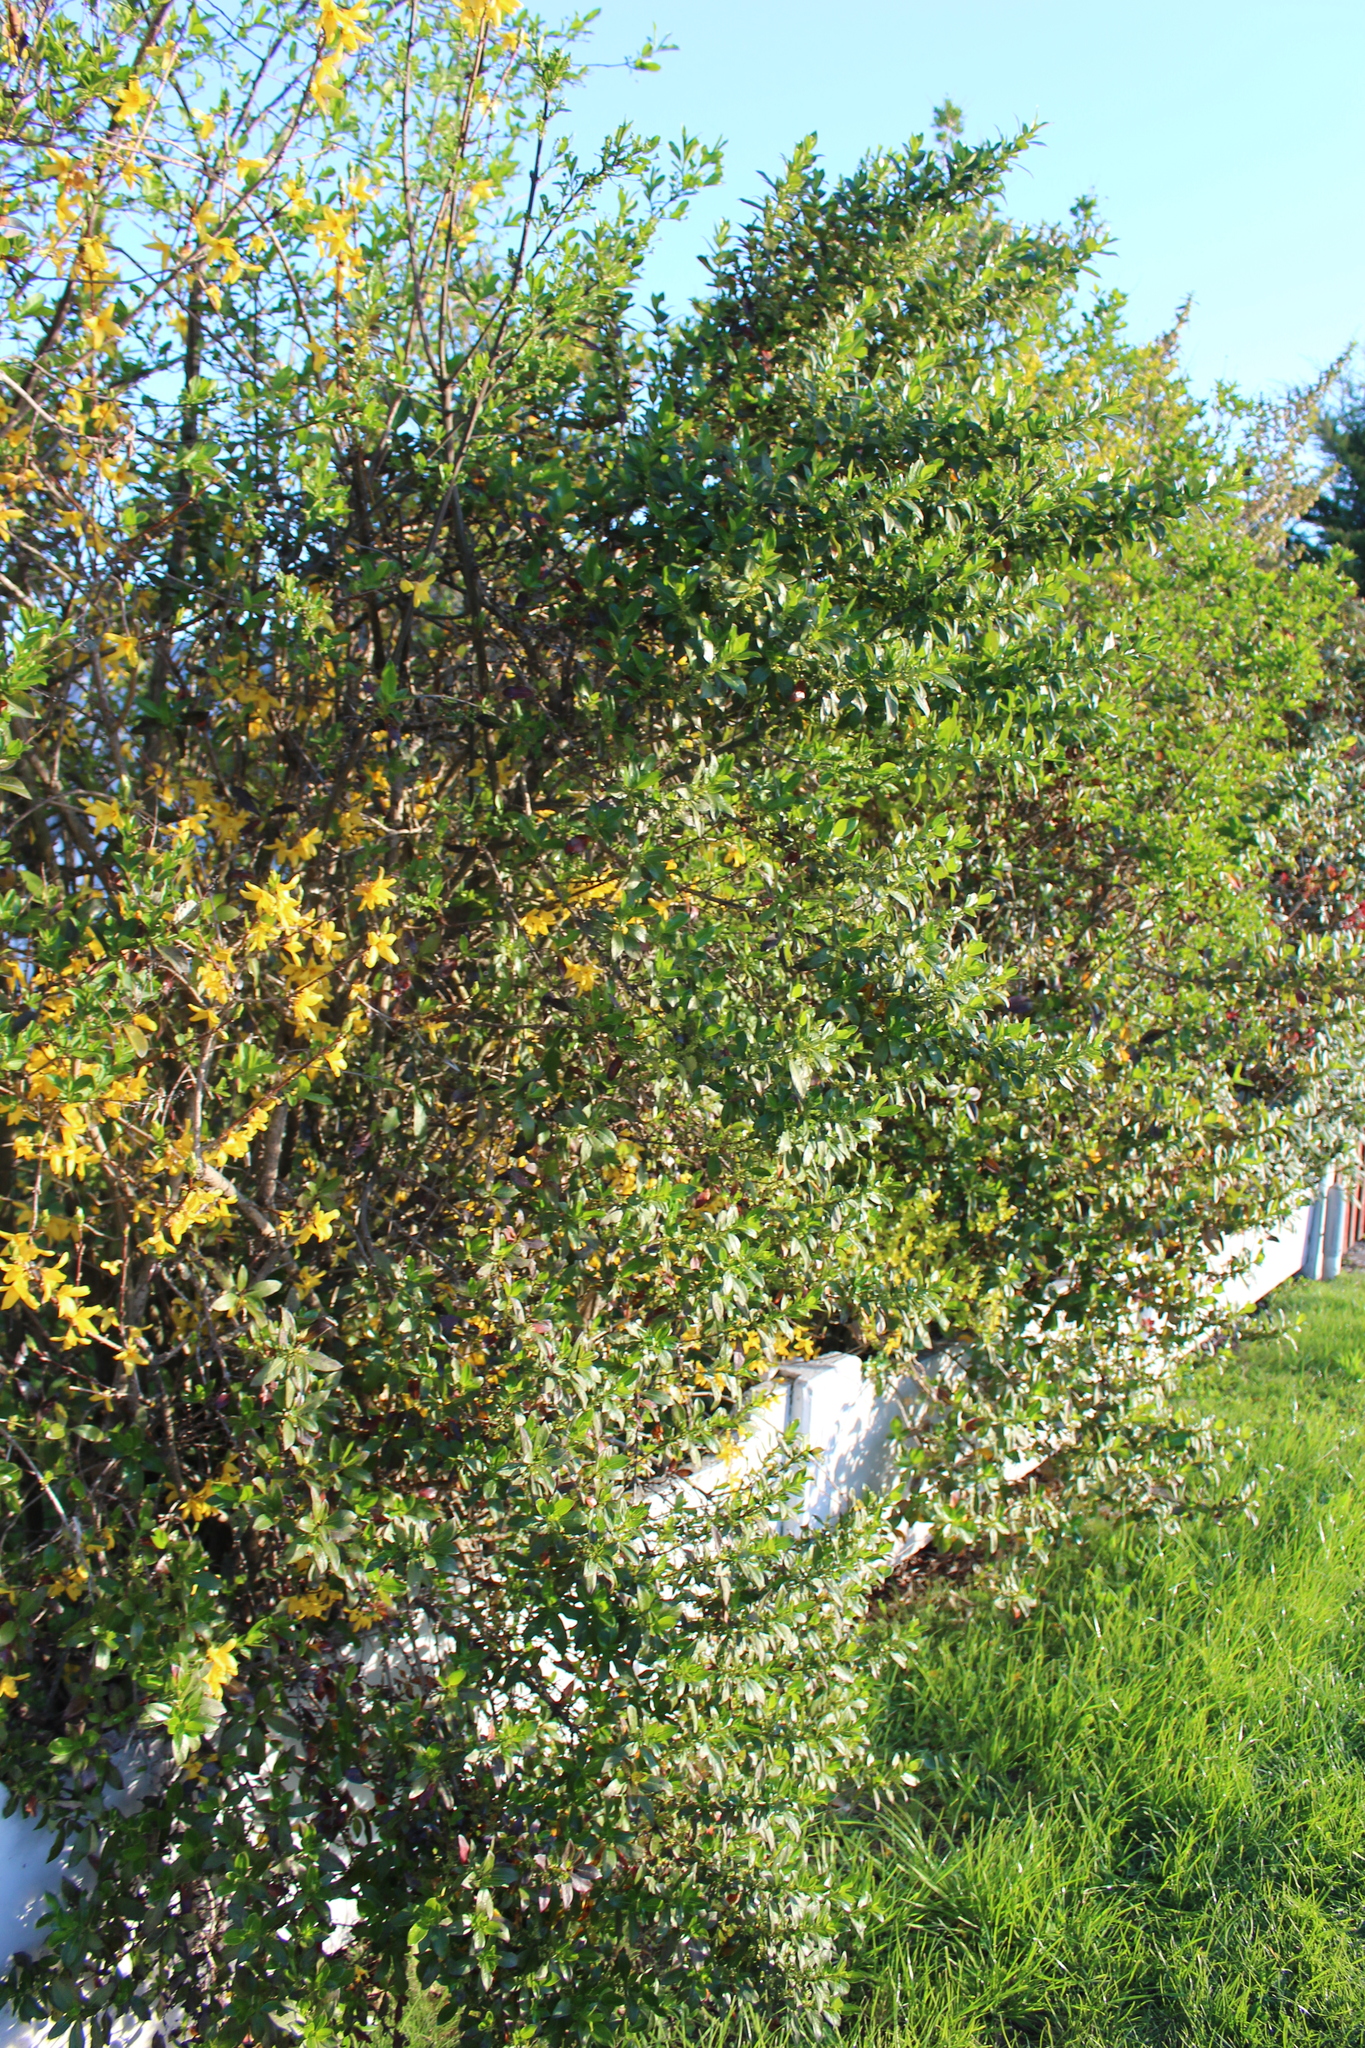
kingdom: Plantae
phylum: Tracheophyta
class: Magnoliopsida
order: Gentianales
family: Rubiaceae
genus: Coprosma
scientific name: Coprosma robusta
